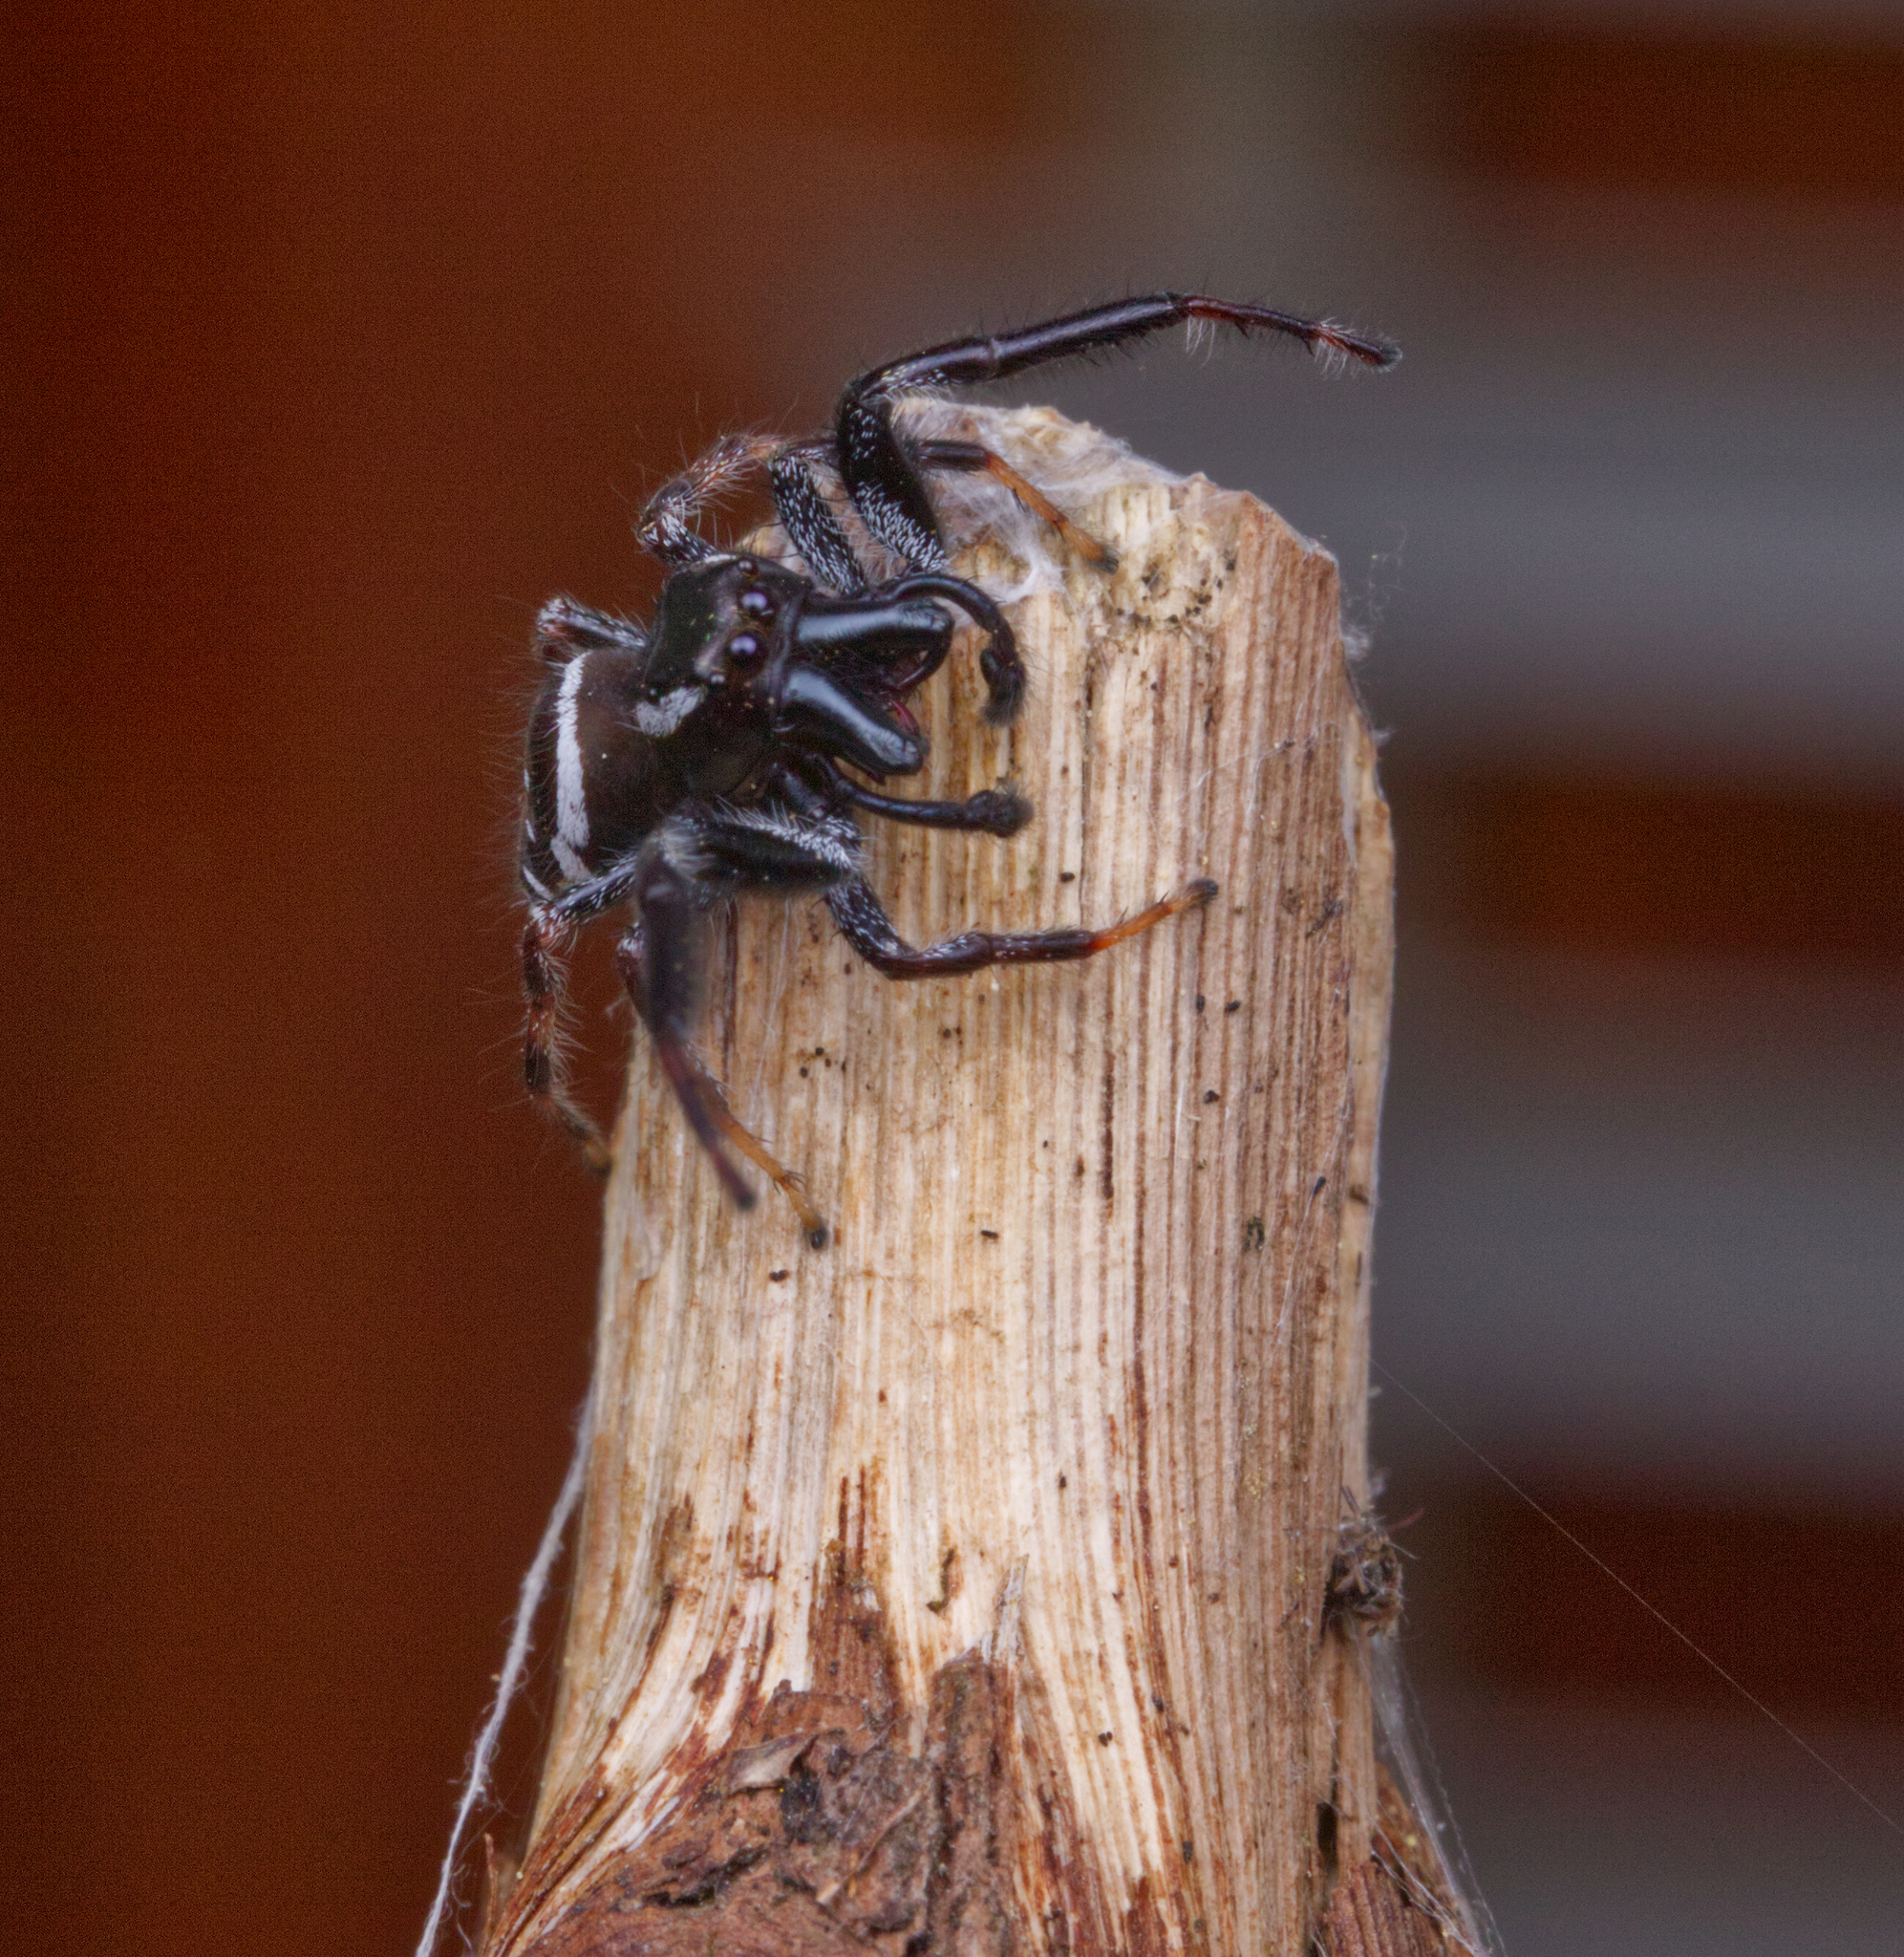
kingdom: Animalia
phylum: Arthropoda
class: Arachnida
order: Araneae
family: Salticidae
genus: Paraphidippus
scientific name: Paraphidippus aurantius
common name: Jumping spiders
